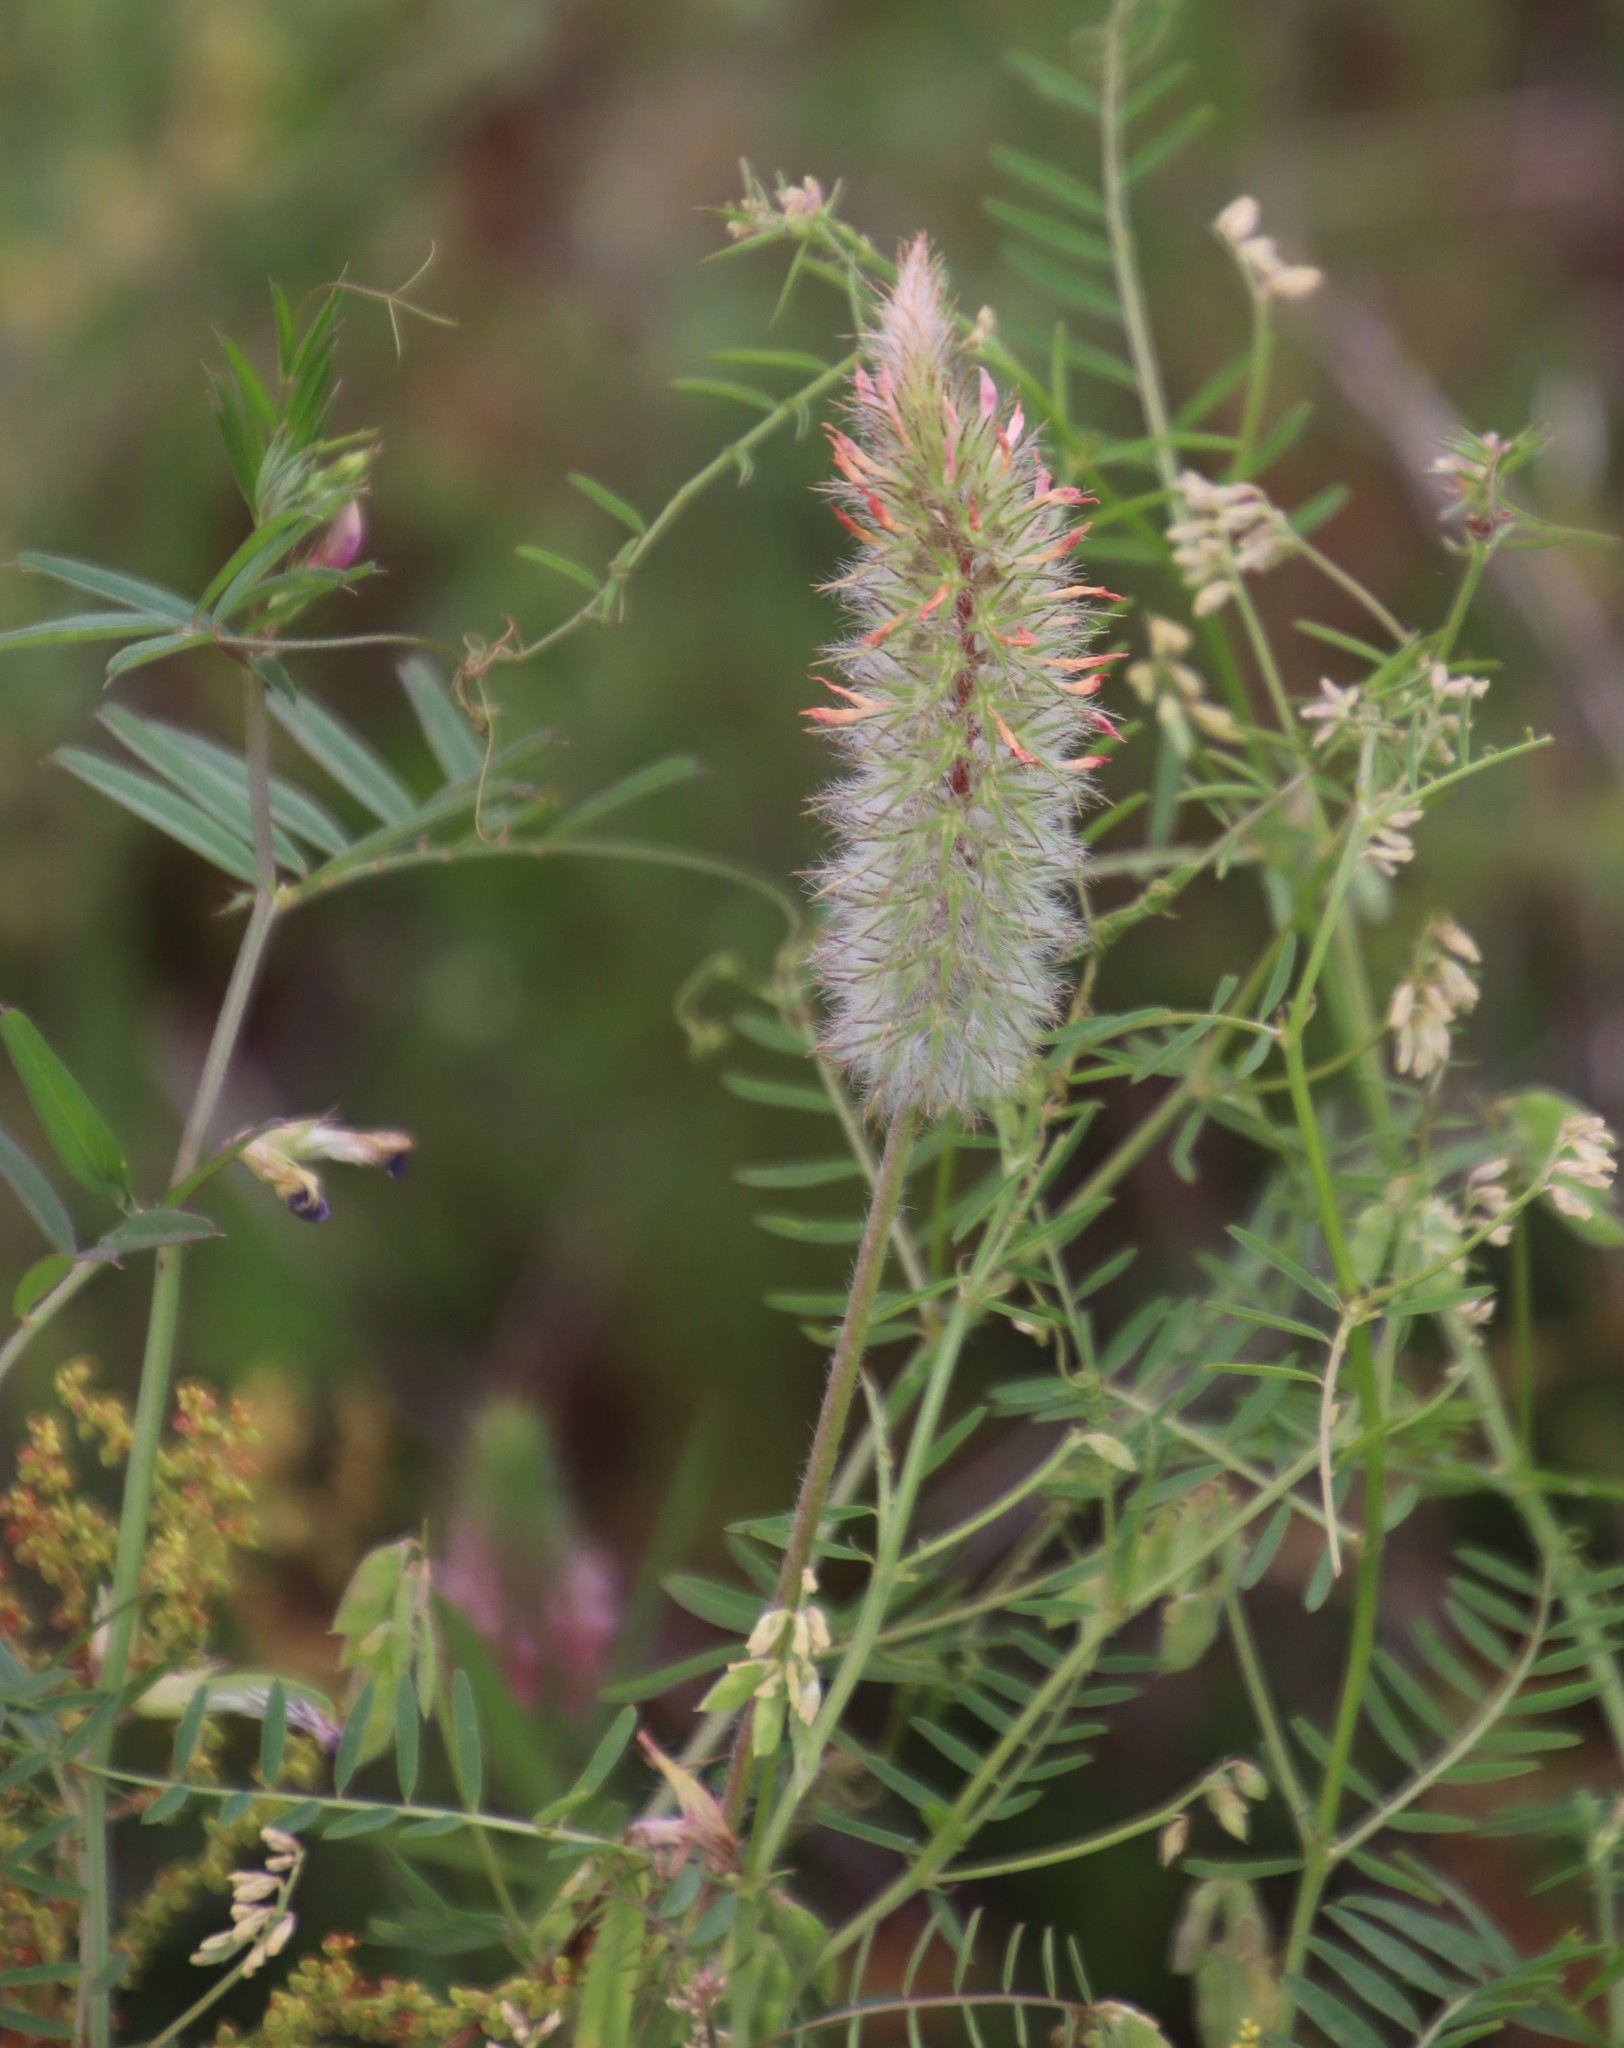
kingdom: Plantae
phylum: Tracheophyta
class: Magnoliopsida
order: Fabales
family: Fabaceae
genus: Trifolium
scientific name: Trifolium angustifolium
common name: Narrow clover
